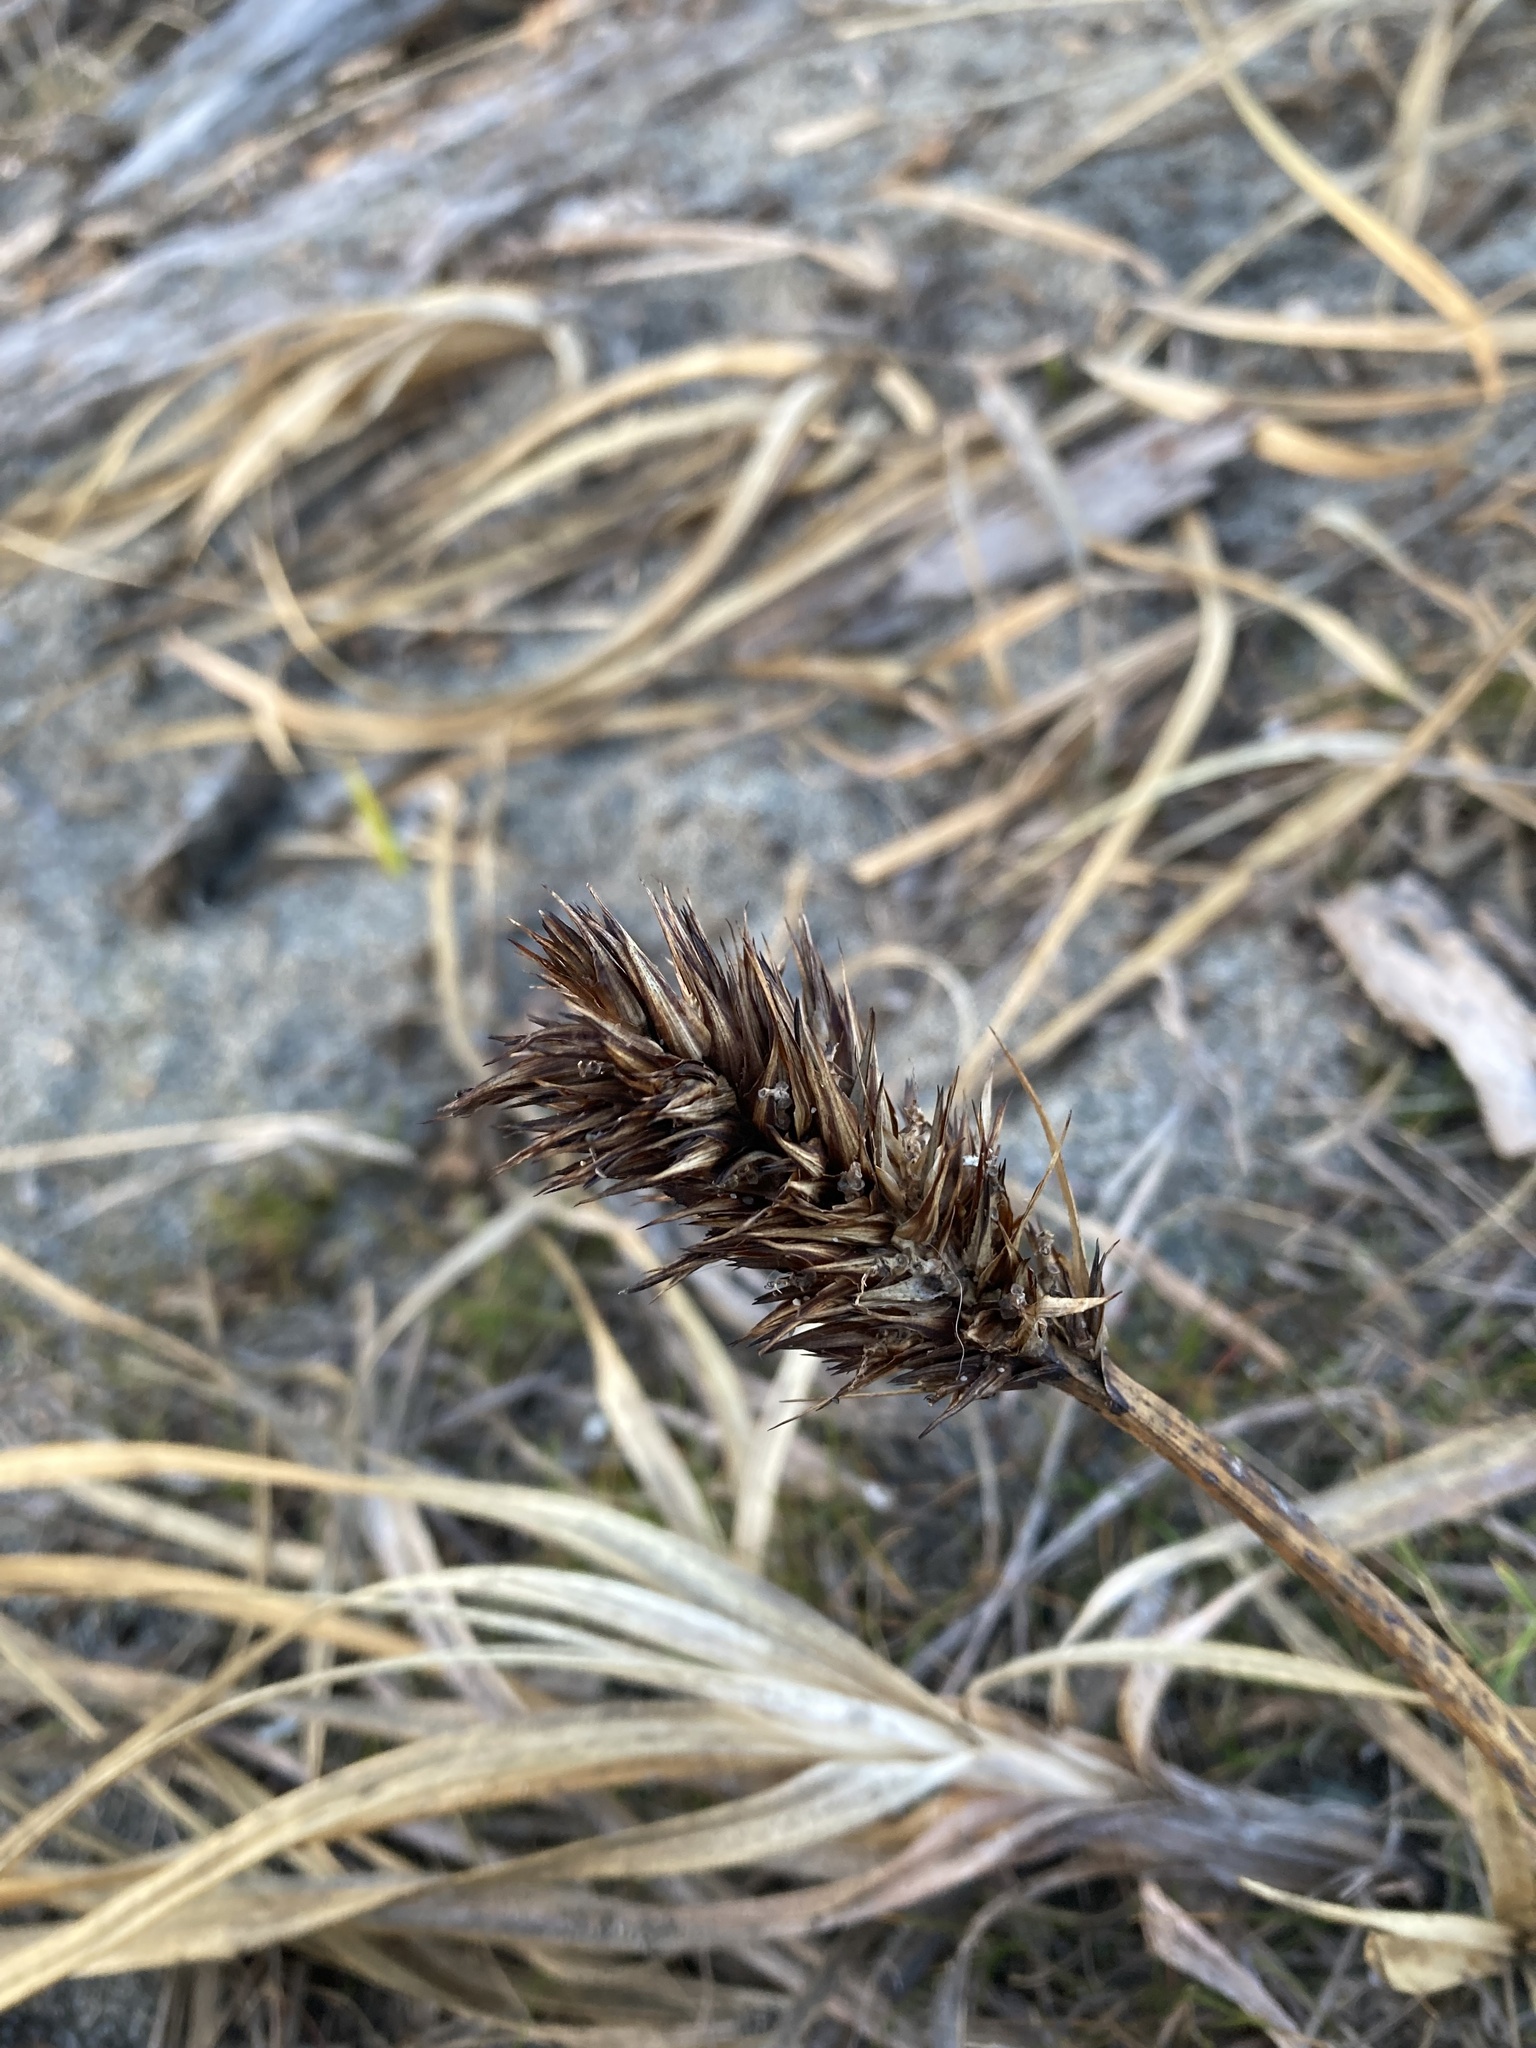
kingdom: Plantae
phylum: Tracheophyta
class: Liliopsida
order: Poales
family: Cyperaceae
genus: Carex
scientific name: Carex macrocephala
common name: Large-head sedge
